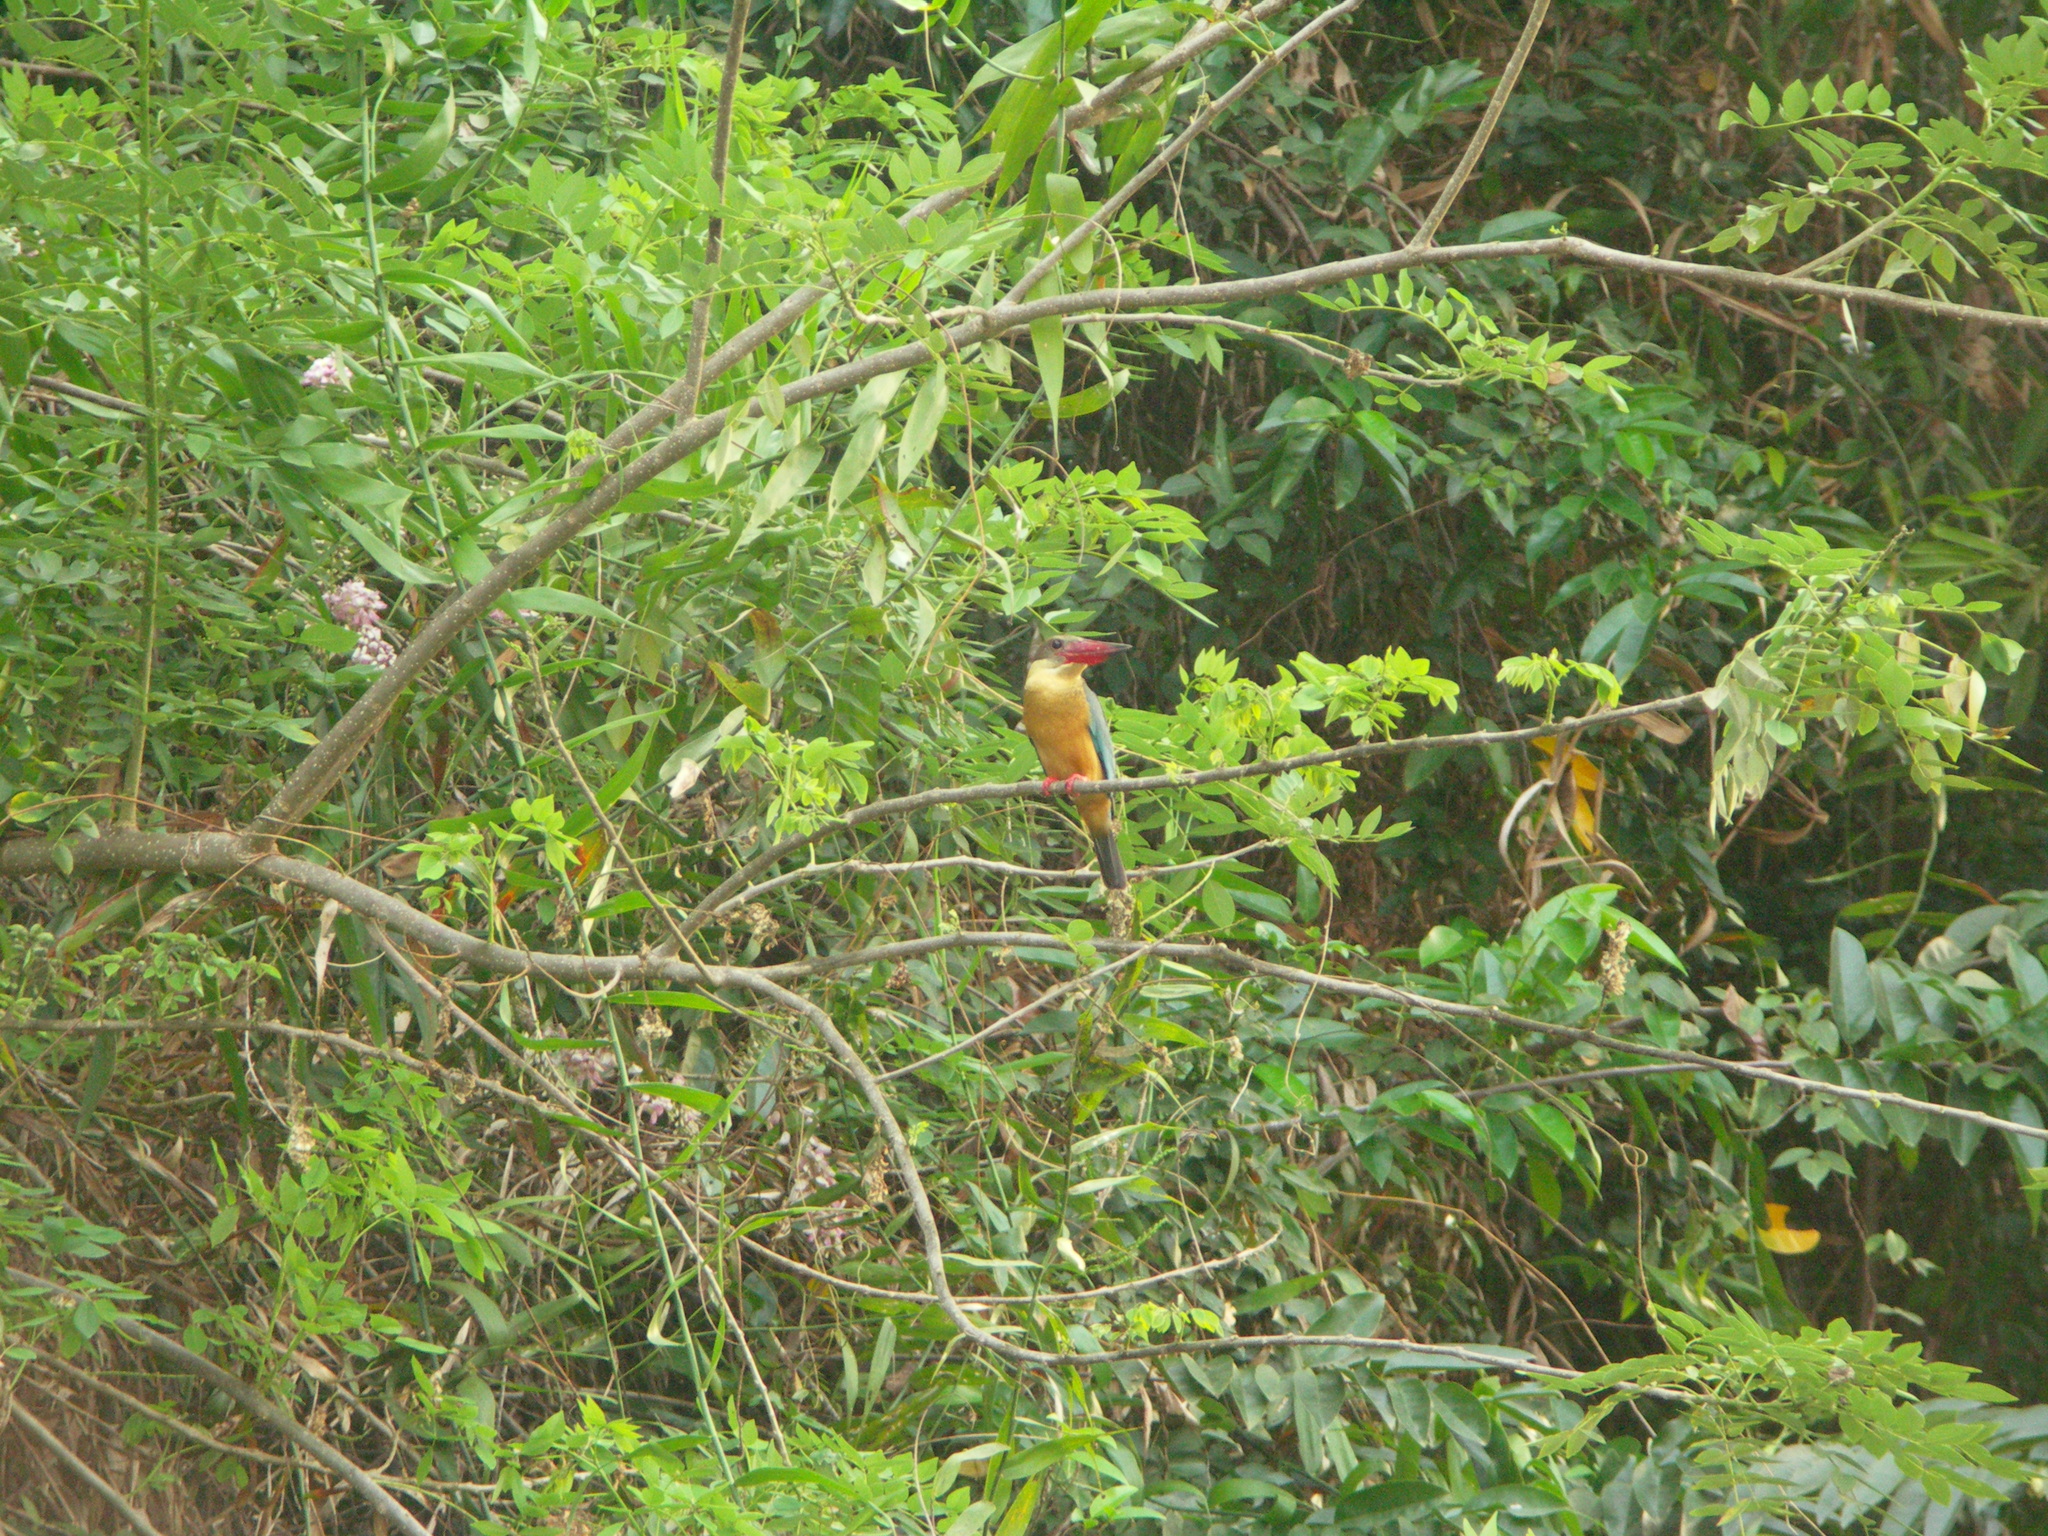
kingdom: Animalia
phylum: Chordata
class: Aves
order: Coraciiformes
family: Alcedinidae
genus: Pelargopsis
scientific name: Pelargopsis capensis
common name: Stork-billed kingfisher
